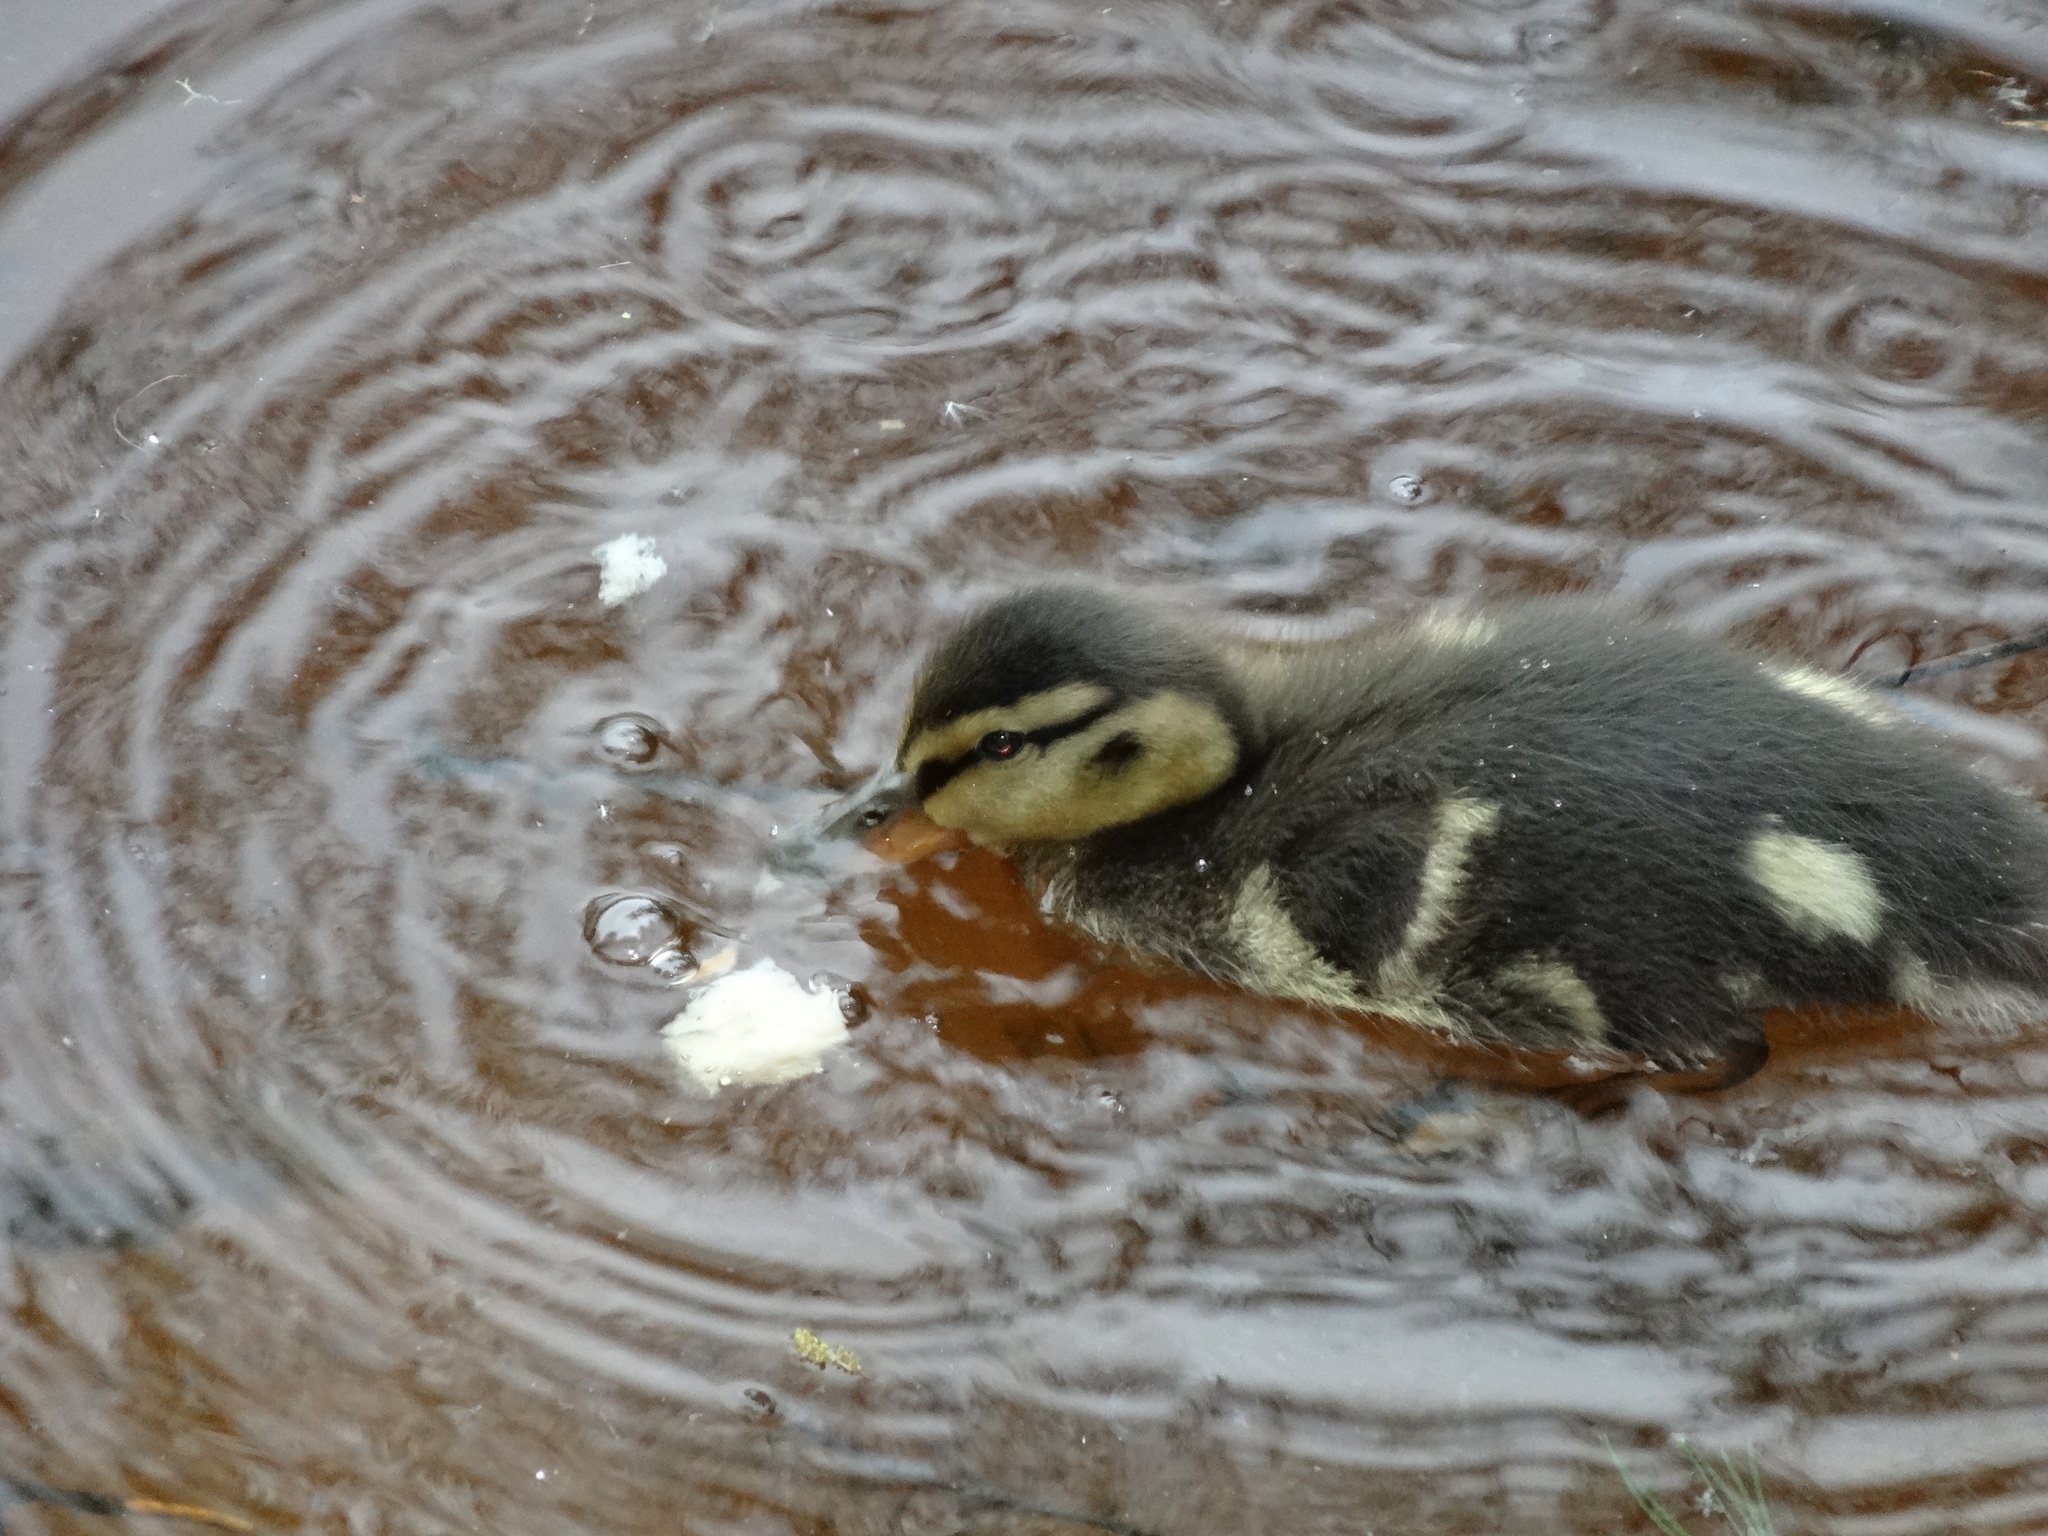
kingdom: Animalia
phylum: Chordata
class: Aves
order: Anseriformes
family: Anatidae
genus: Anas
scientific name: Anas platyrhynchos
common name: Mallard
